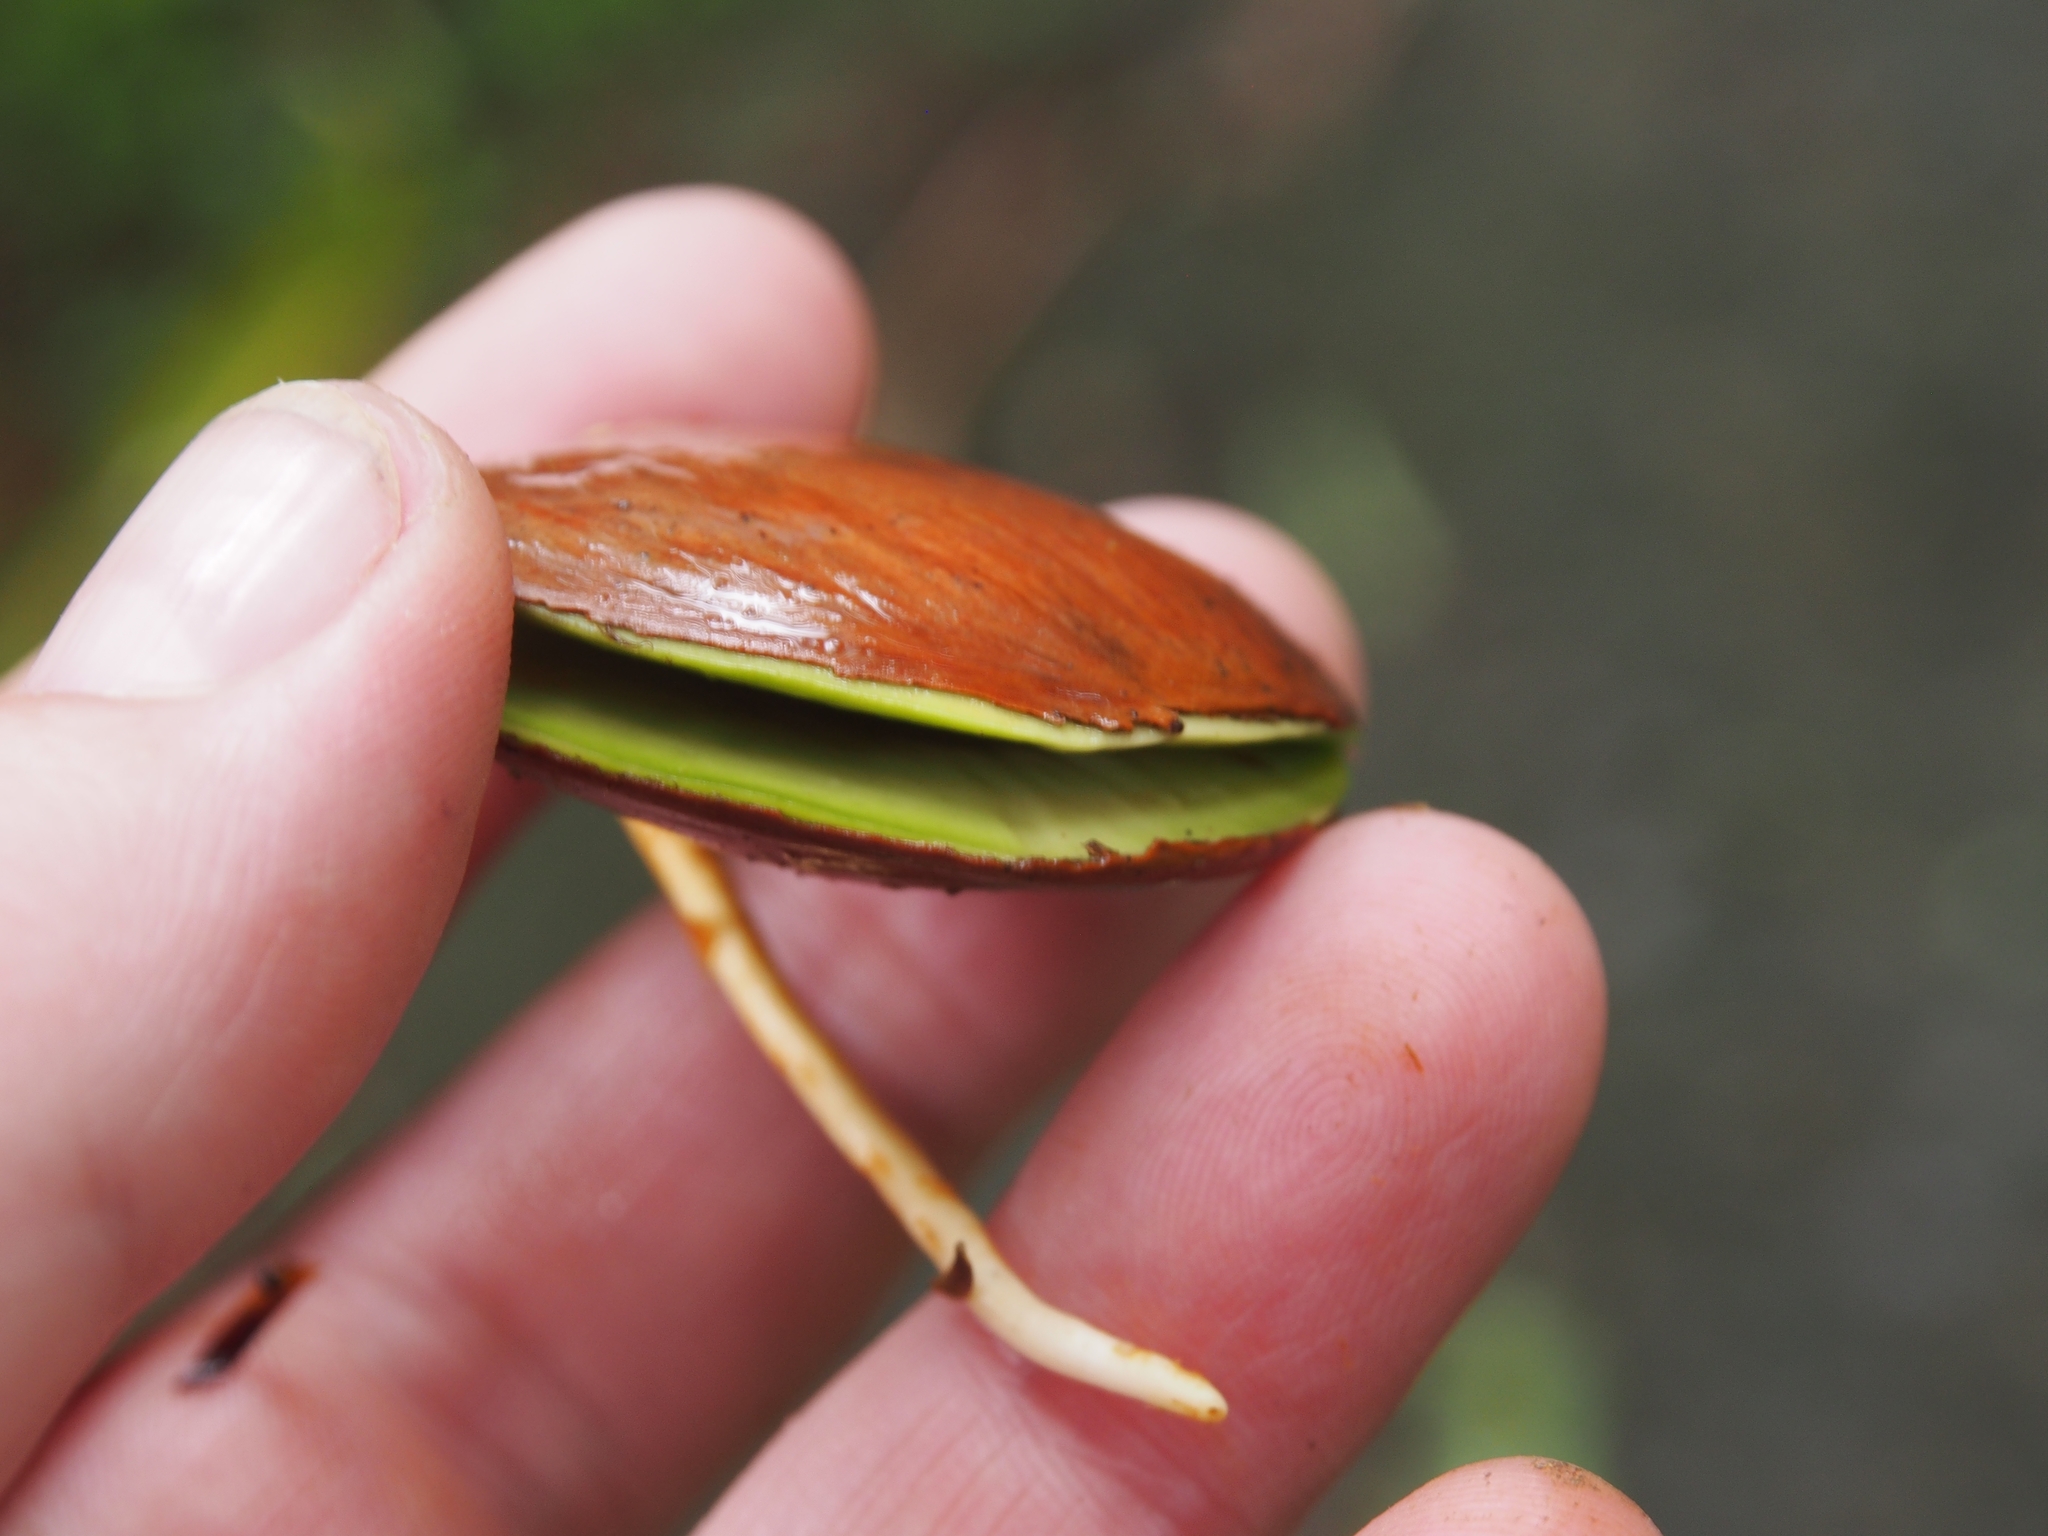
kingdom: Plantae
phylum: Tracheophyta
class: Magnoliopsida
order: Fabales
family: Fabaceae
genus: Pentaclethra
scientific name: Pentaclethra macroloba
